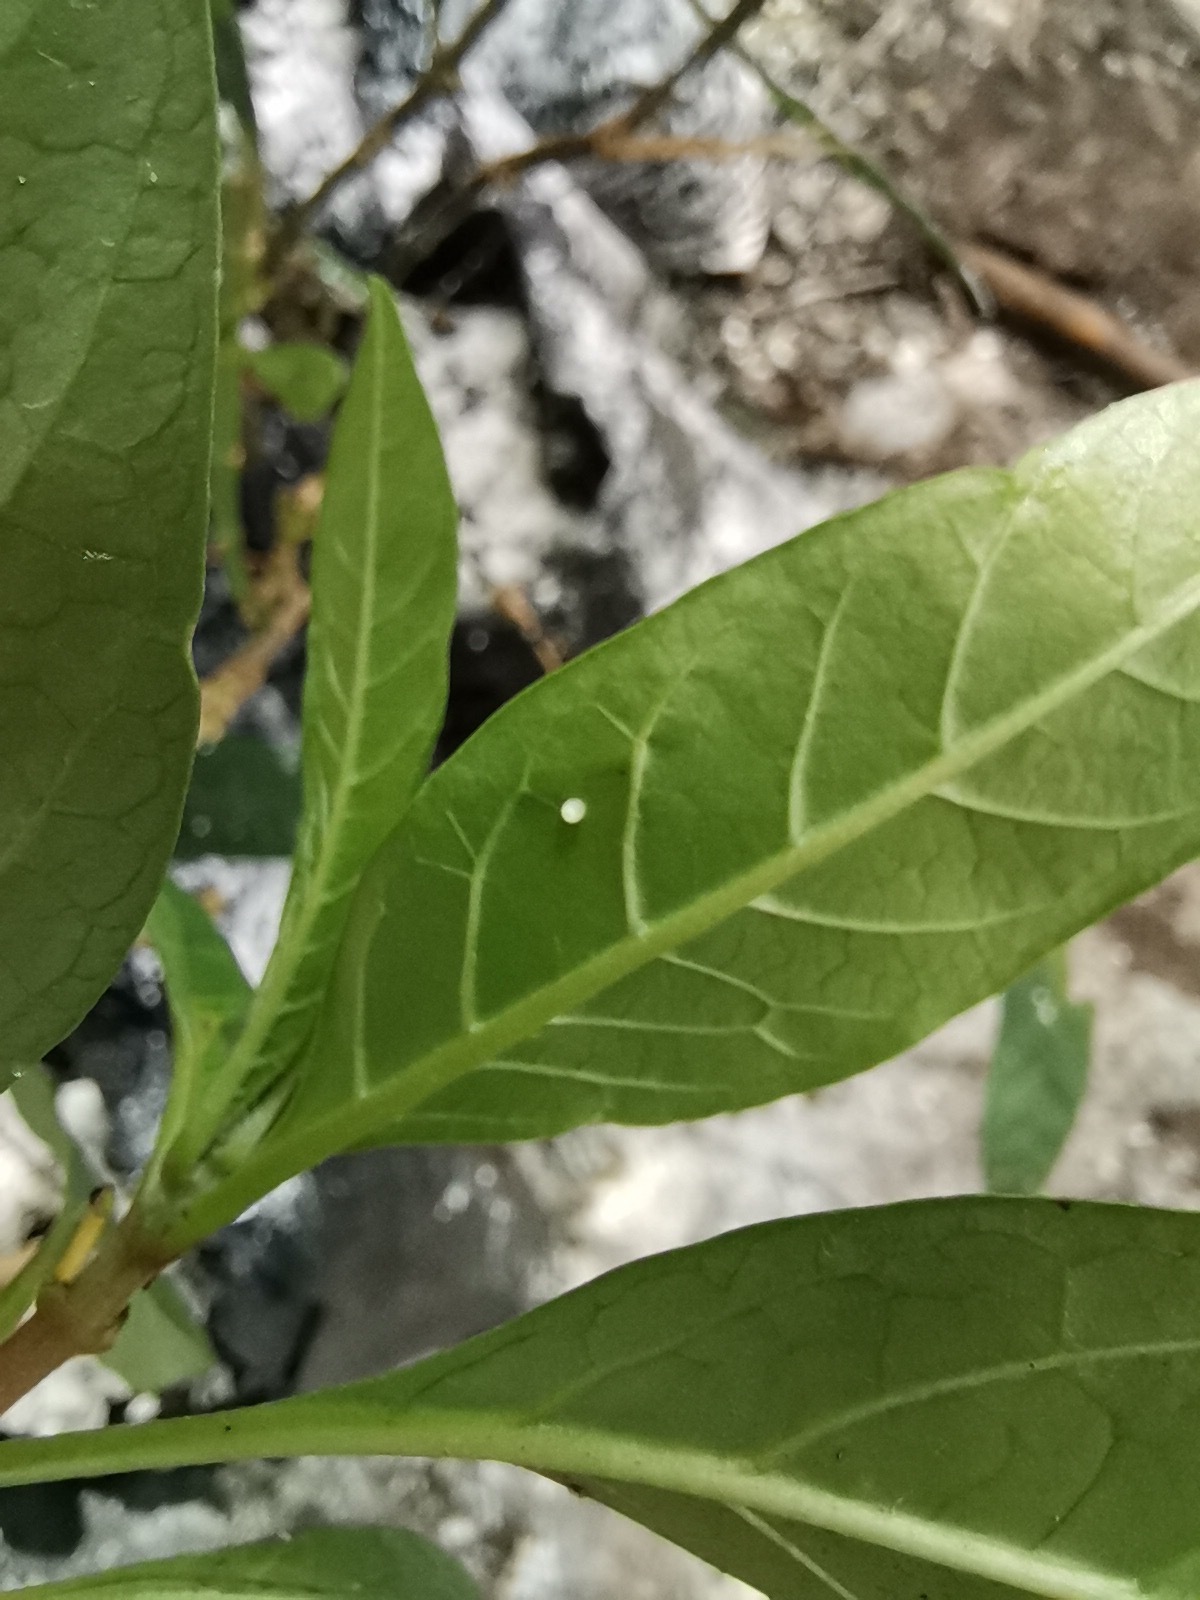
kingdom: Animalia
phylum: Arthropoda
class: Insecta
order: Lepidoptera
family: Nymphalidae
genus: Danaus
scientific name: Danaus plexippus
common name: Monarch
